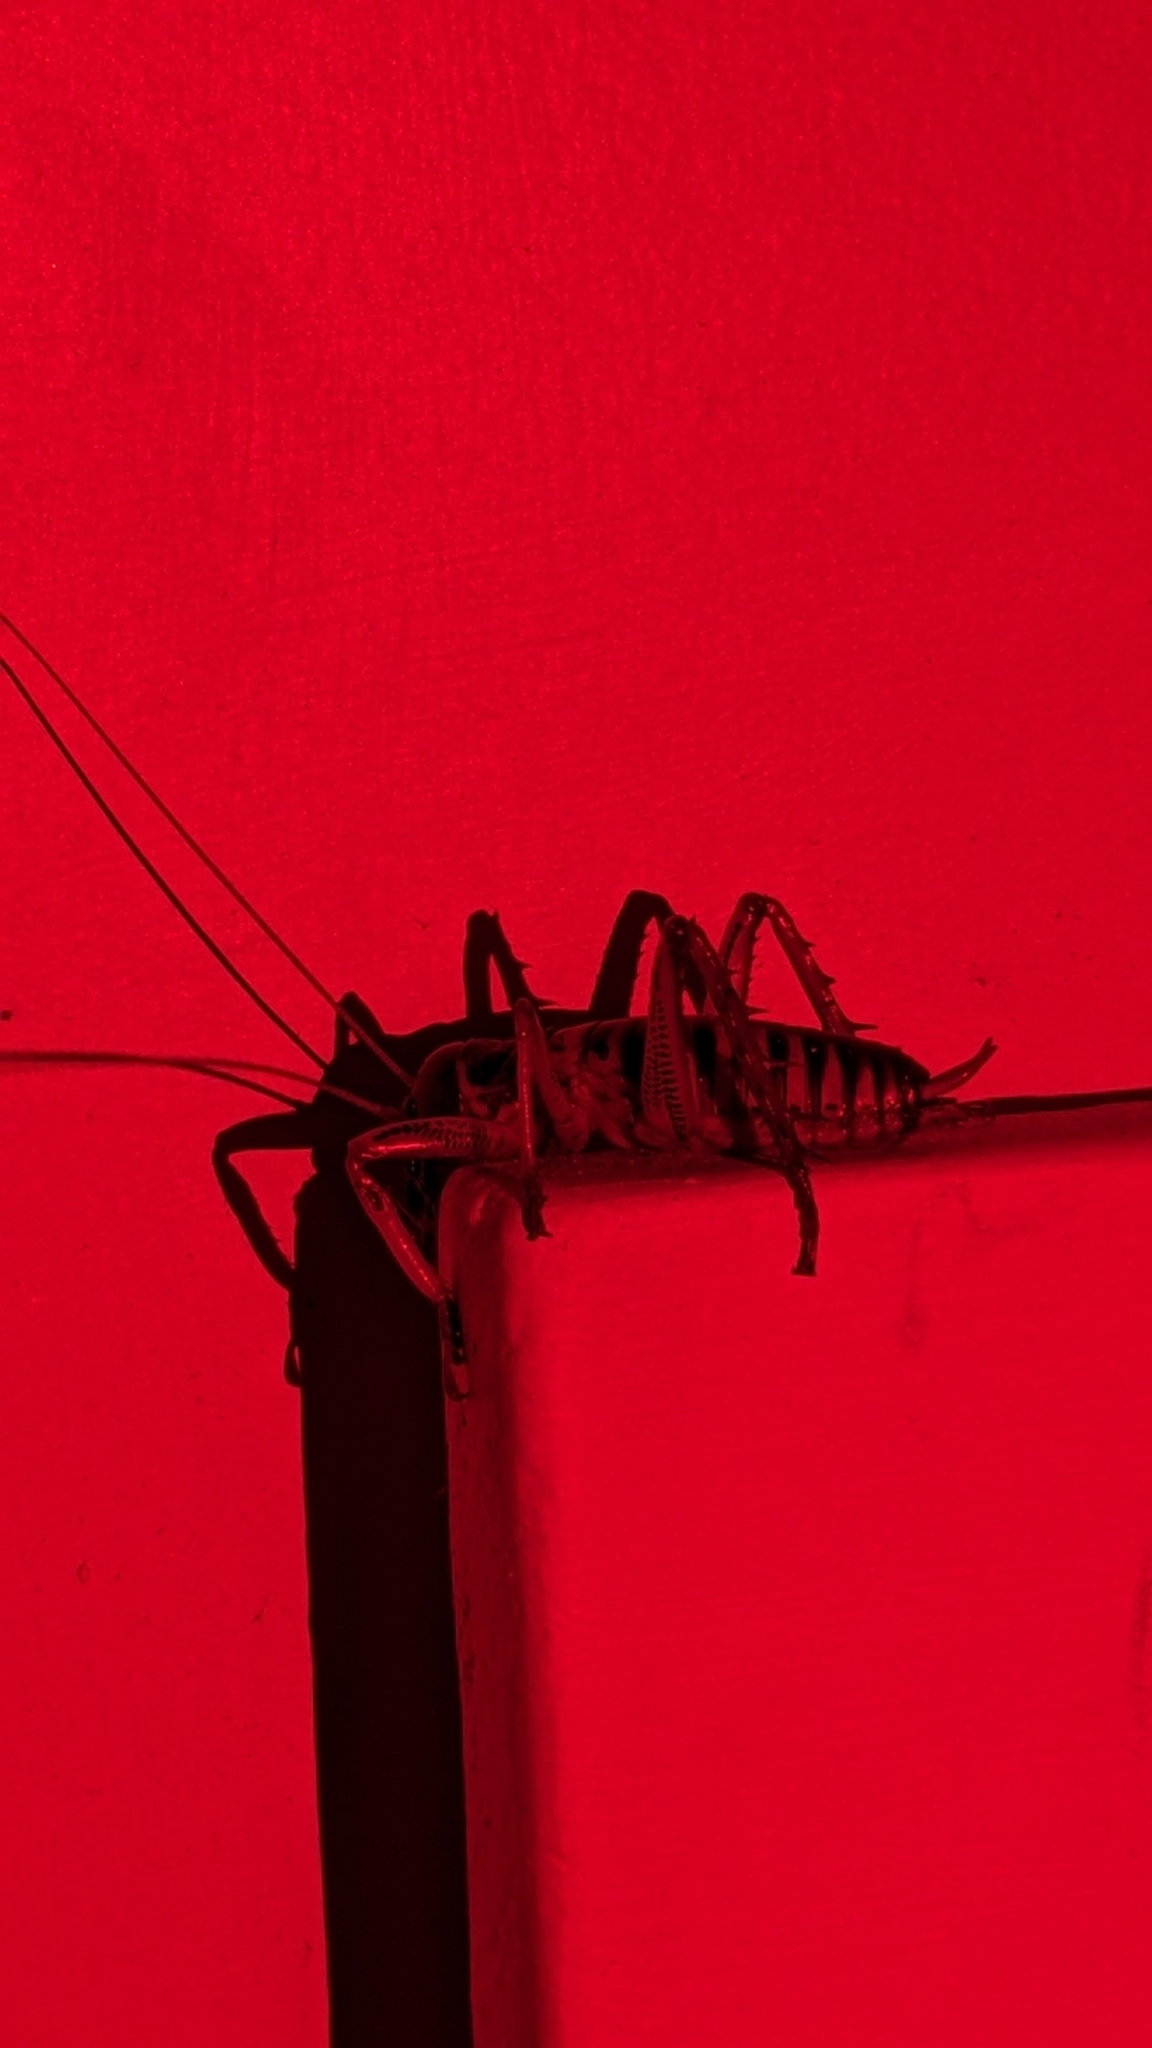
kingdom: Animalia
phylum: Arthropoda
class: Insecta
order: Orthoptera
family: Anostostomatidae
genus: Hemideina
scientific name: Hemideina crassidens
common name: Wellington tree weta
